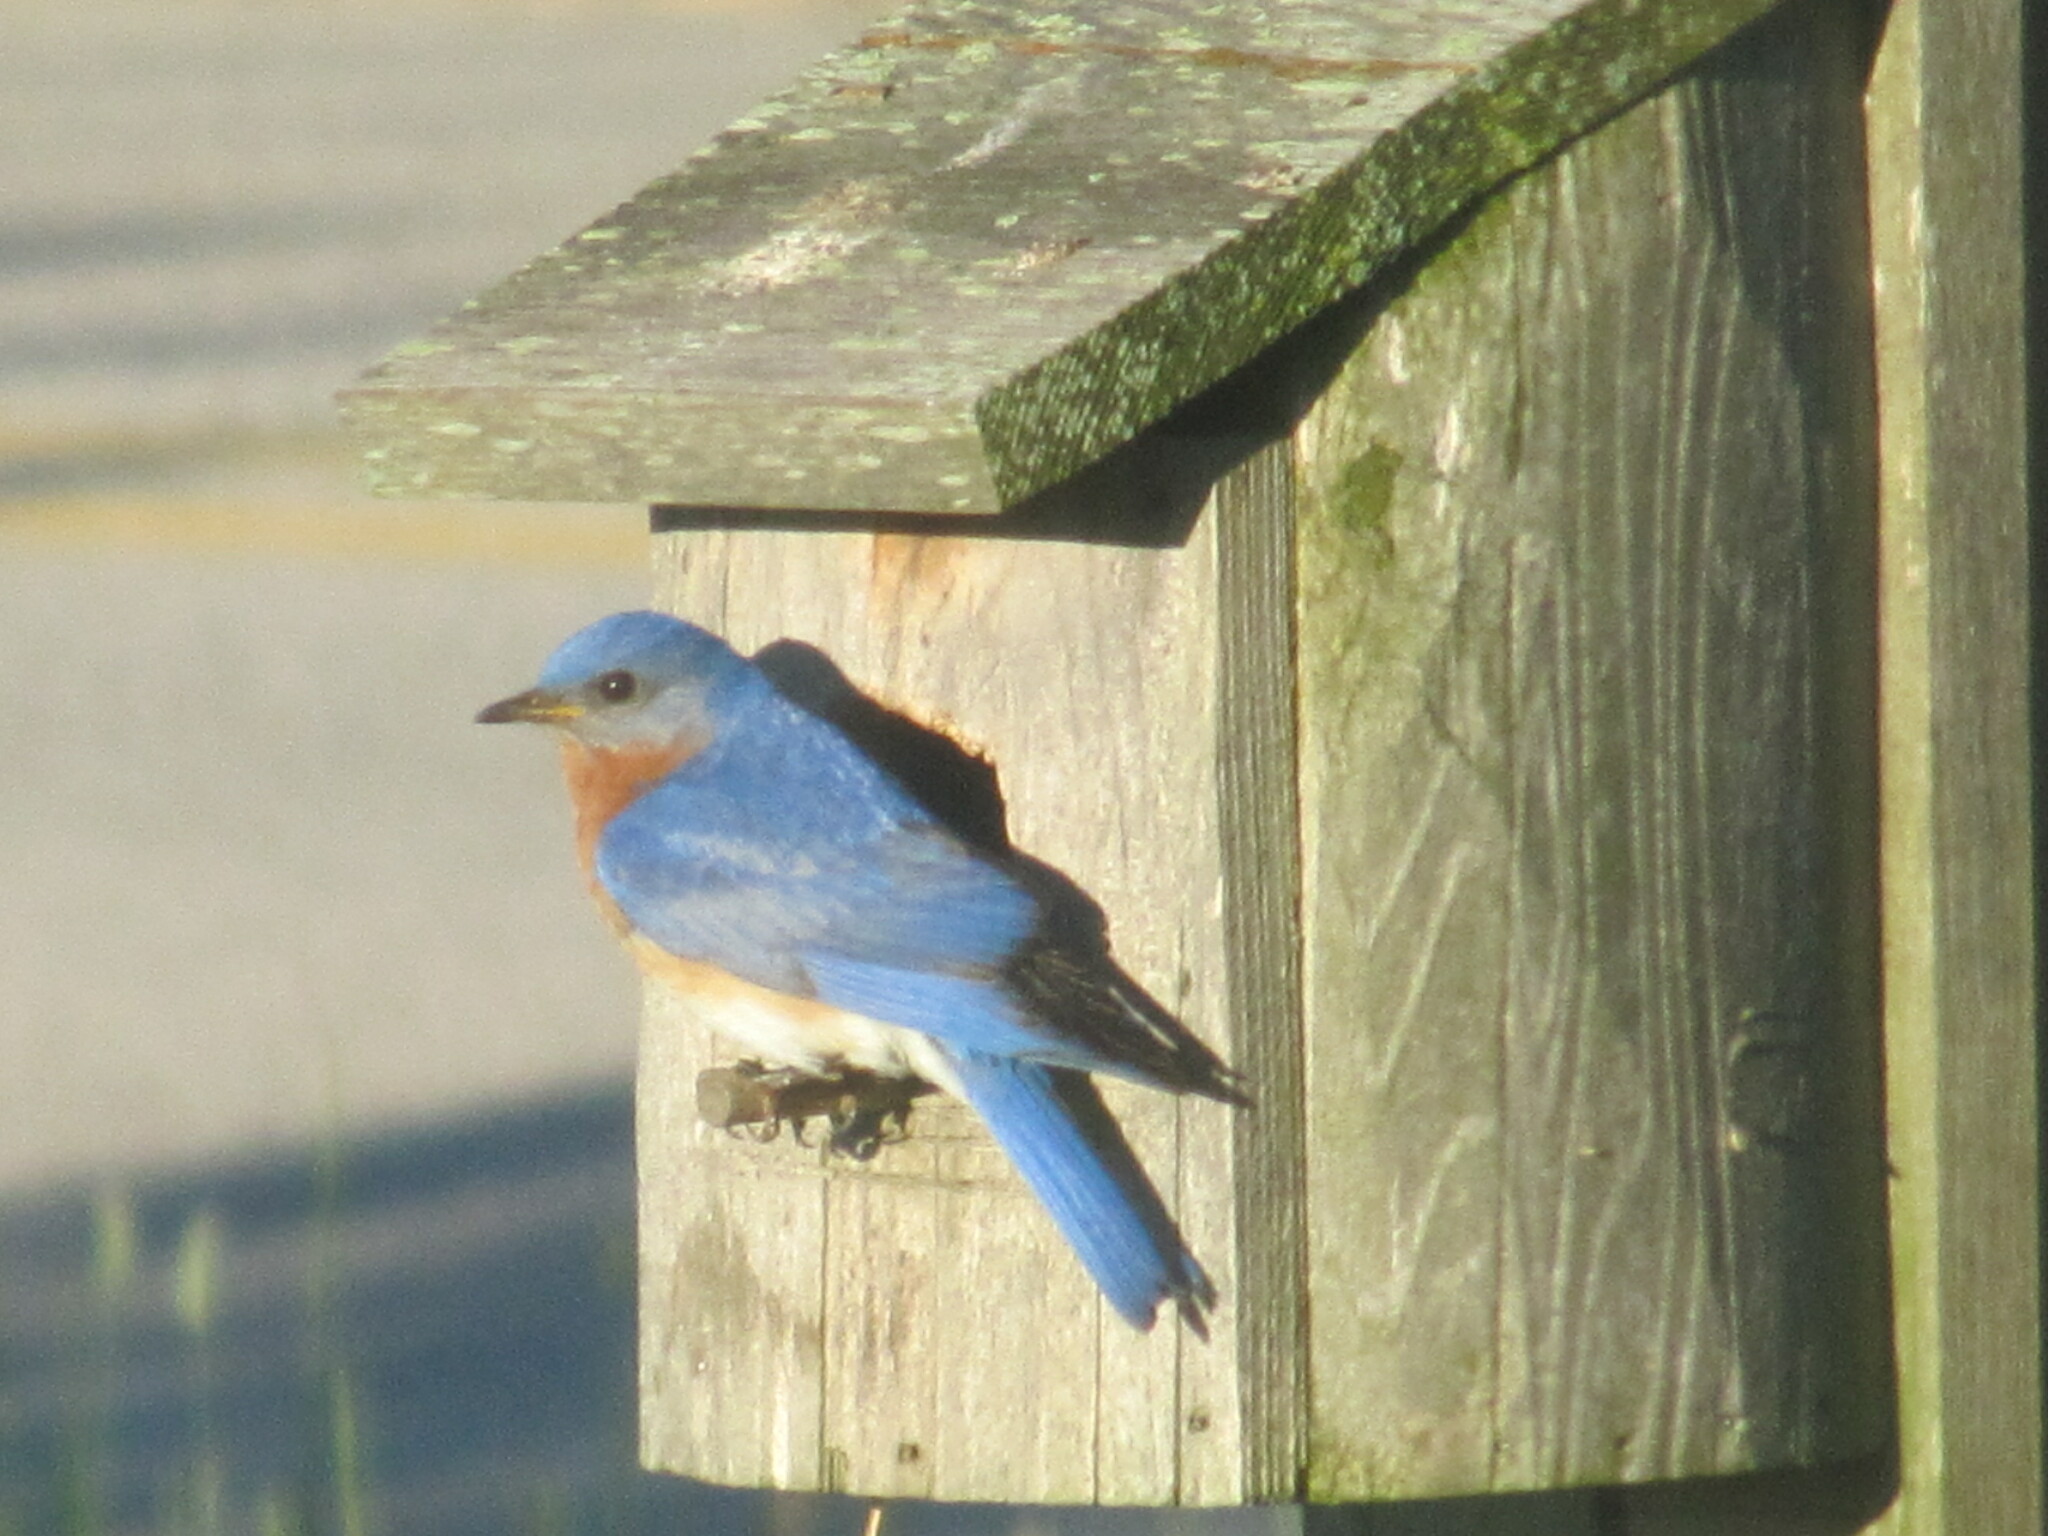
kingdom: Animalia
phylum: Chordata
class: Aves
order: Passeriformes
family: Turdidae
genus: Sialia
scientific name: Sialia sialis
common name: Eastern bluebird
